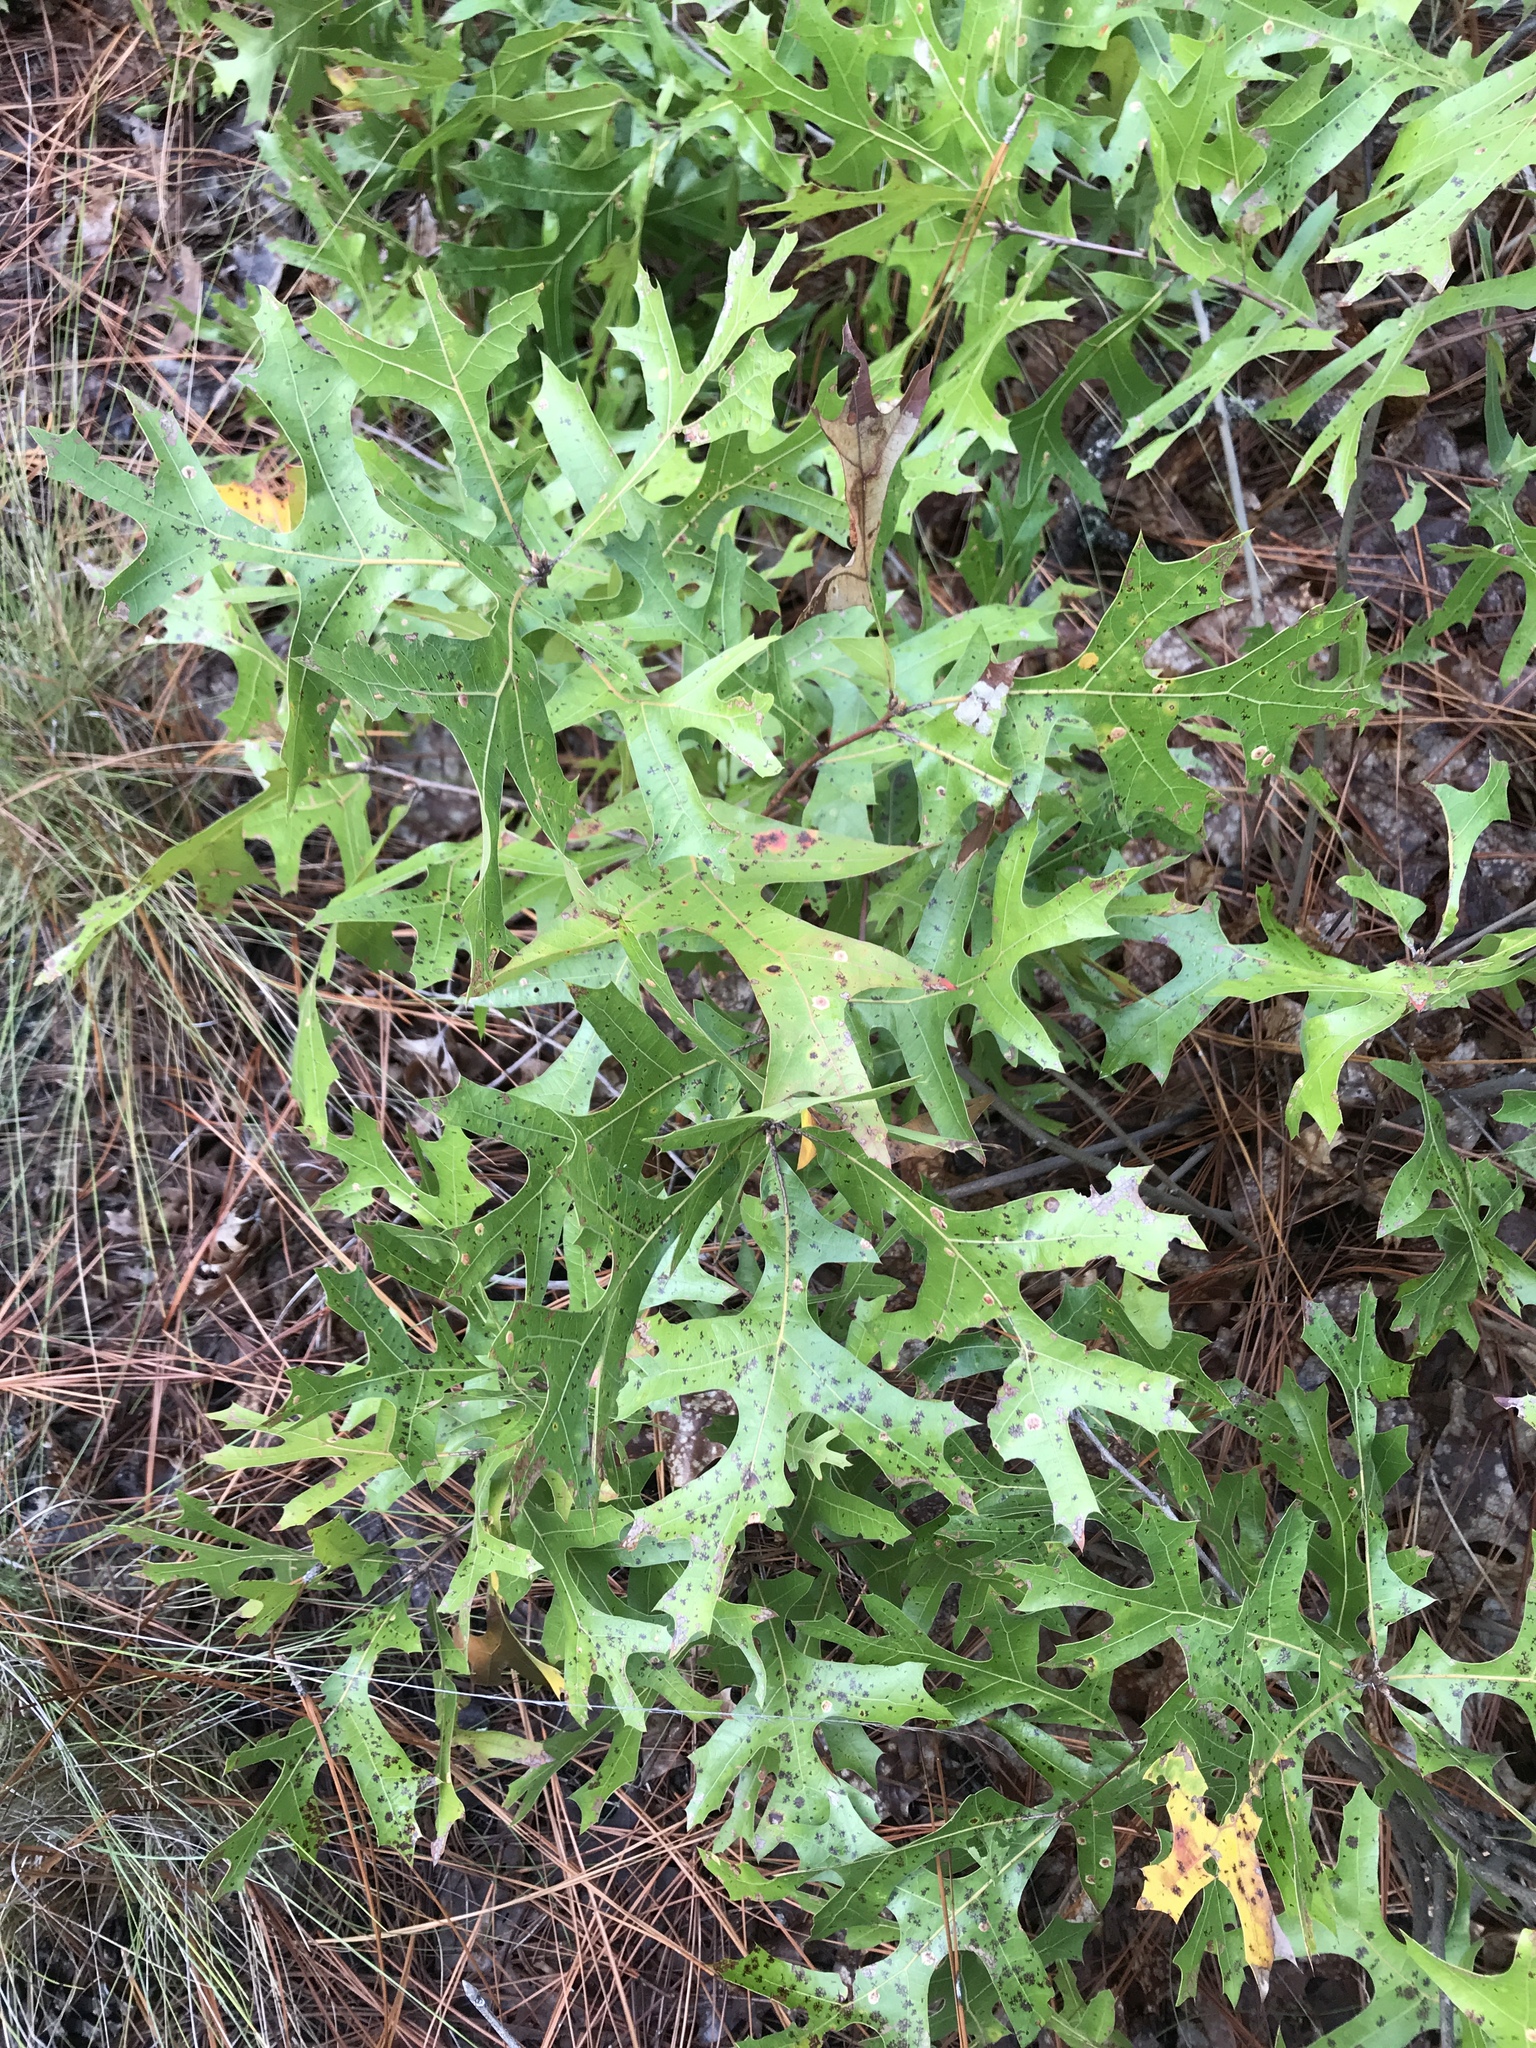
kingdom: Plantae
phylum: Tracheophyta
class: Magnoliopsida
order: Fagales
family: Fagaceae
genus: Quercus
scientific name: Quercus laevis
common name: Turkey oak
